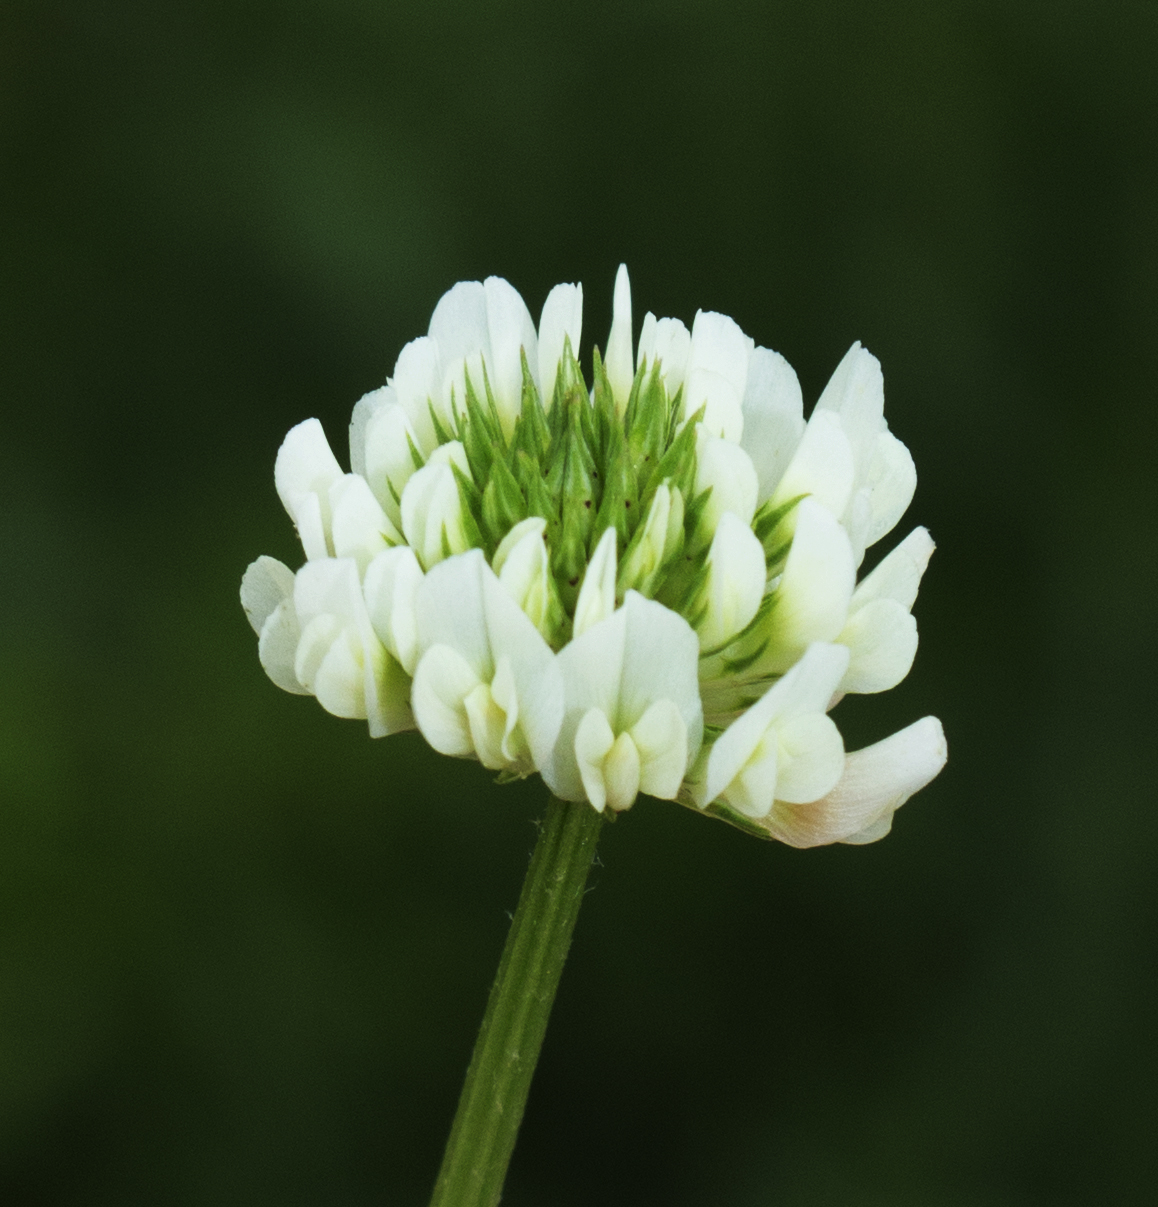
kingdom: Plantae
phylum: Tracheophyta
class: Magnoliopsida
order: Fabales
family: Fabaceae
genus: Trifolium
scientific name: Trifolium repens
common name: White clover
